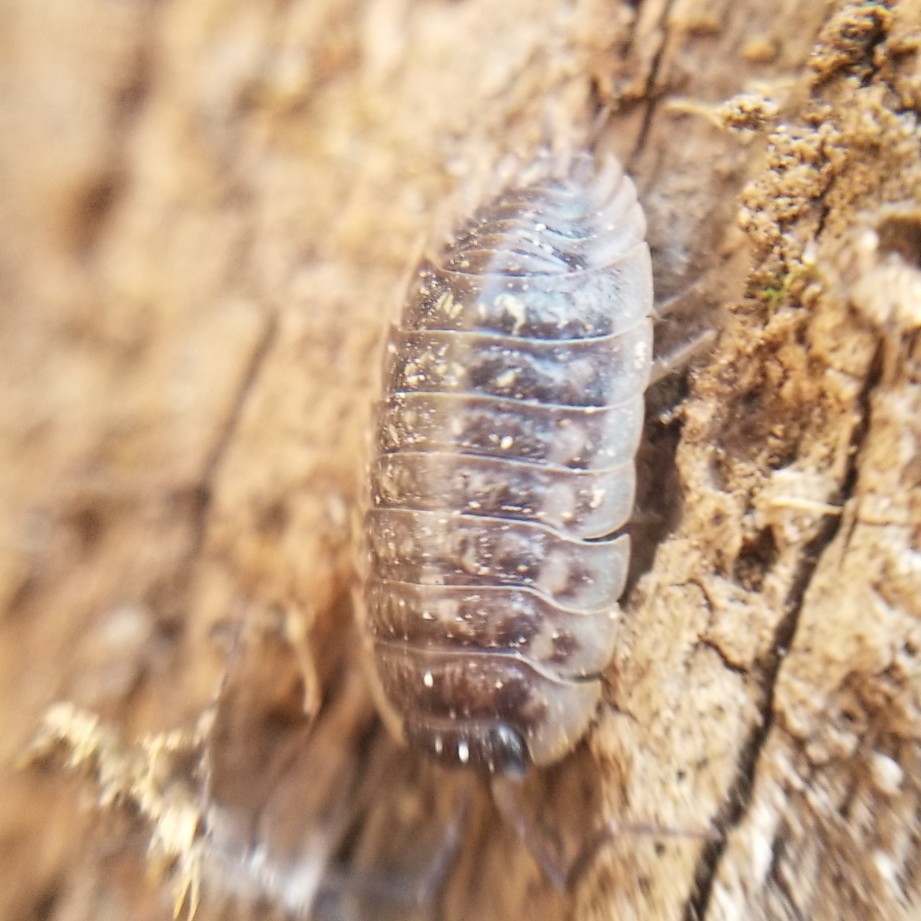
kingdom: Animalia
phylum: Arthropoda
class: Malacostraca
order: Isopoda
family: Oniscidae
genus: Oniscus
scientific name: Oniscus asellus
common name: Common shiny woodlouse
